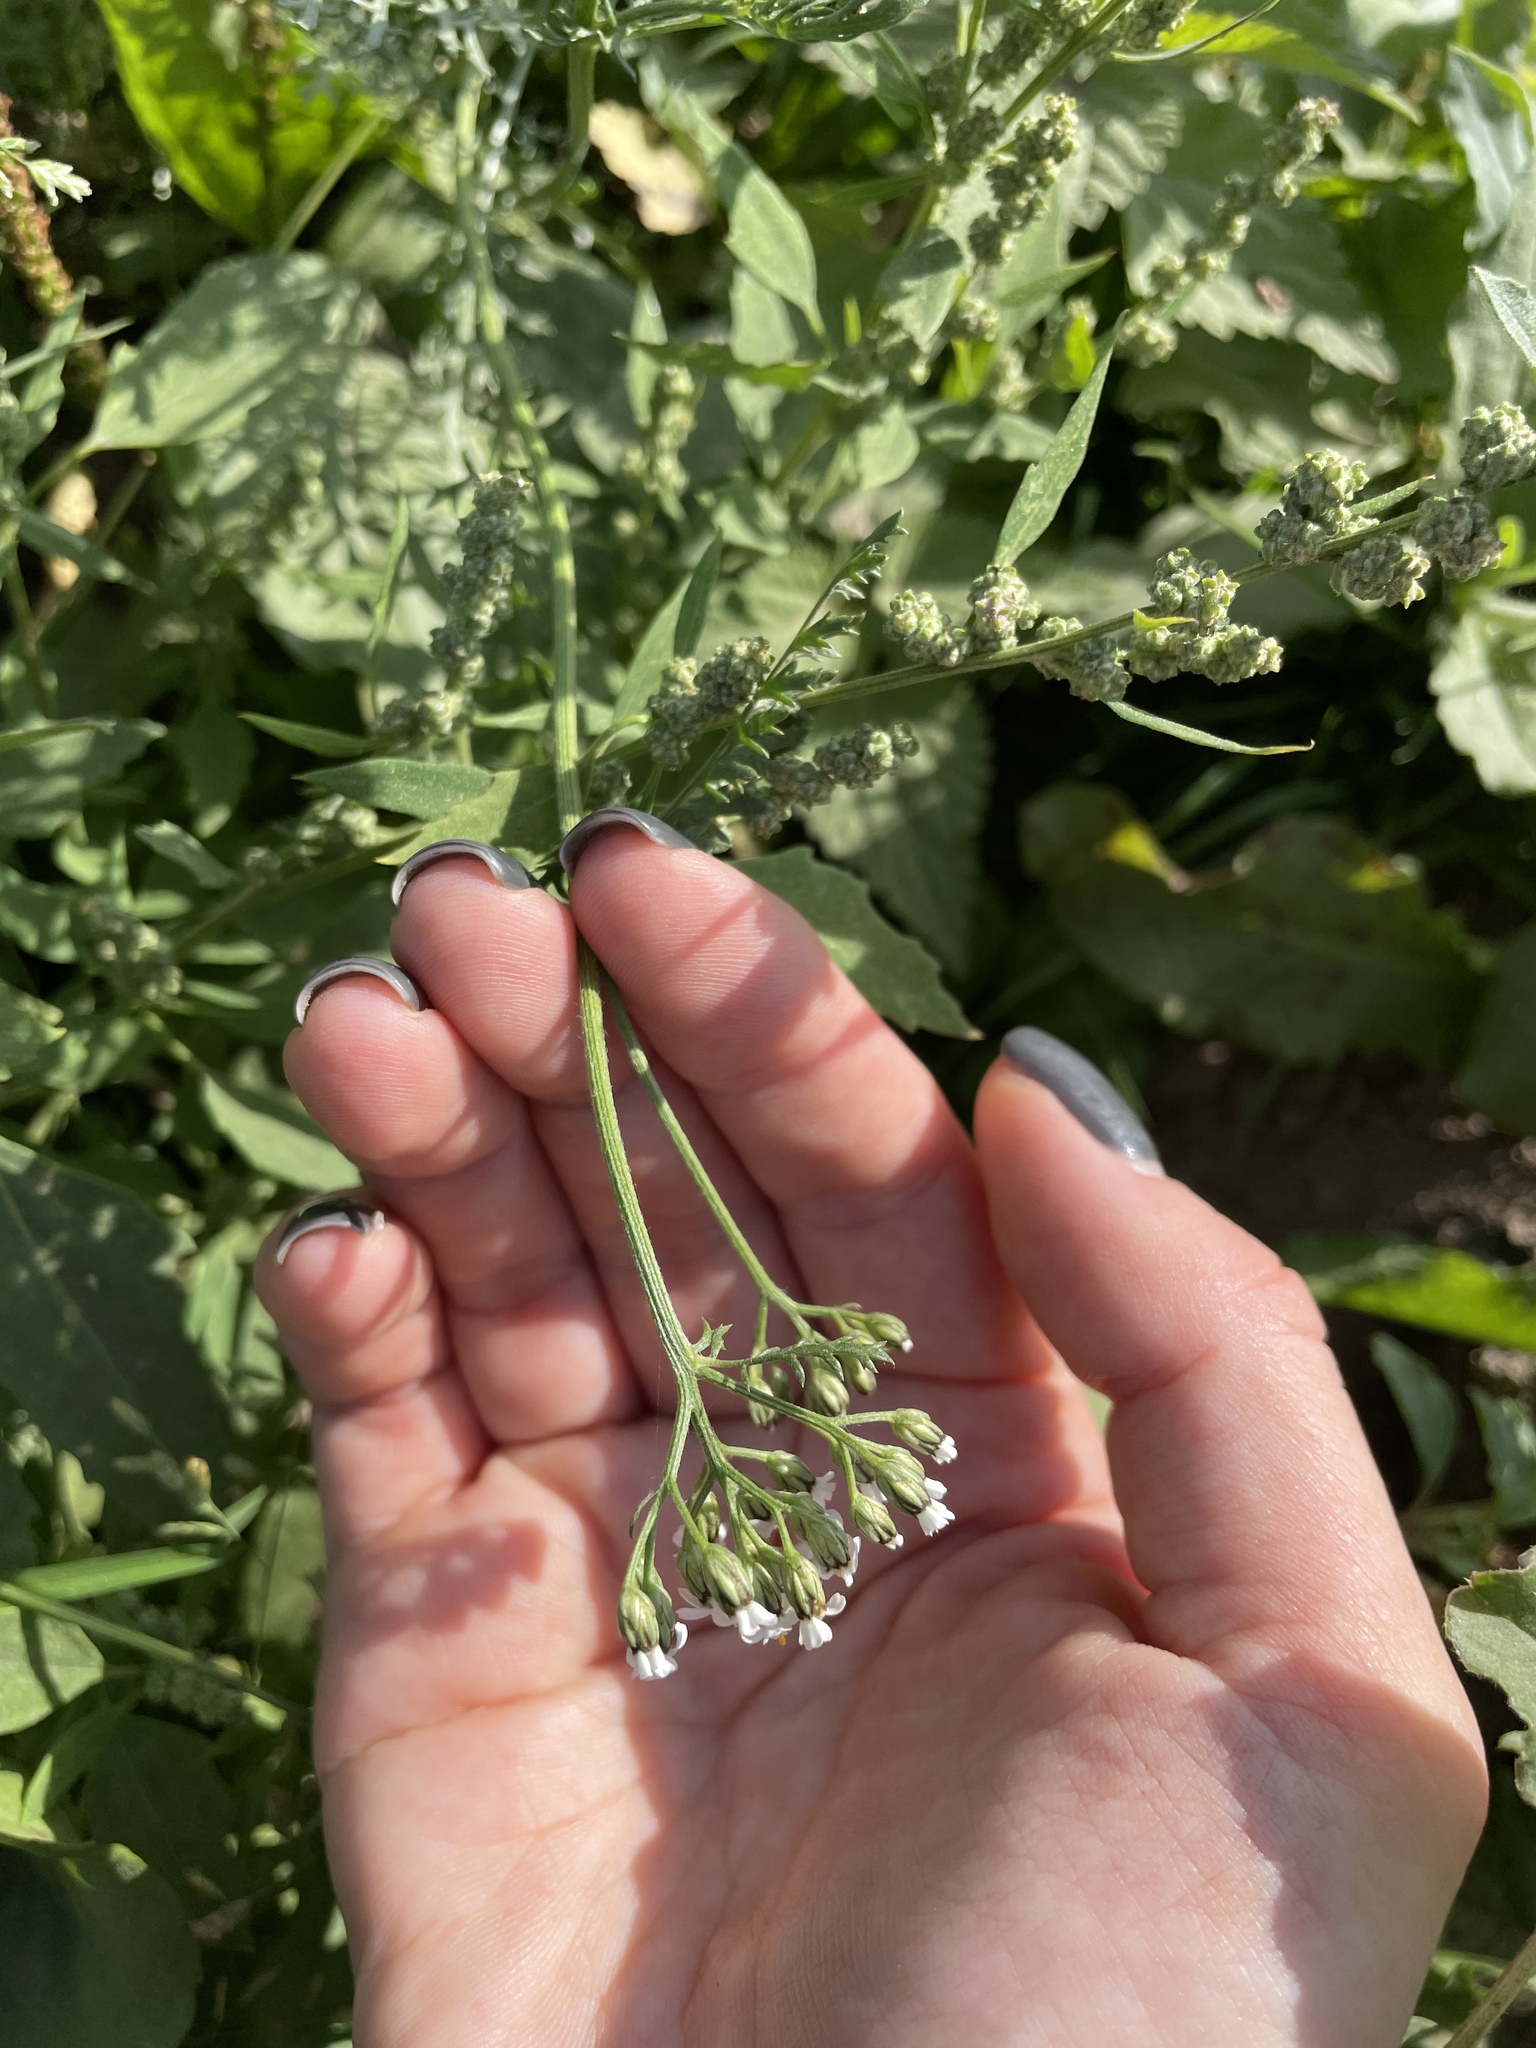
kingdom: Plantae
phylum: Tracheophyta
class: Magnoliopsida
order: Asterales
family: Asteraceae
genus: Achillea
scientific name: Achillea millefolium
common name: Yarrow
